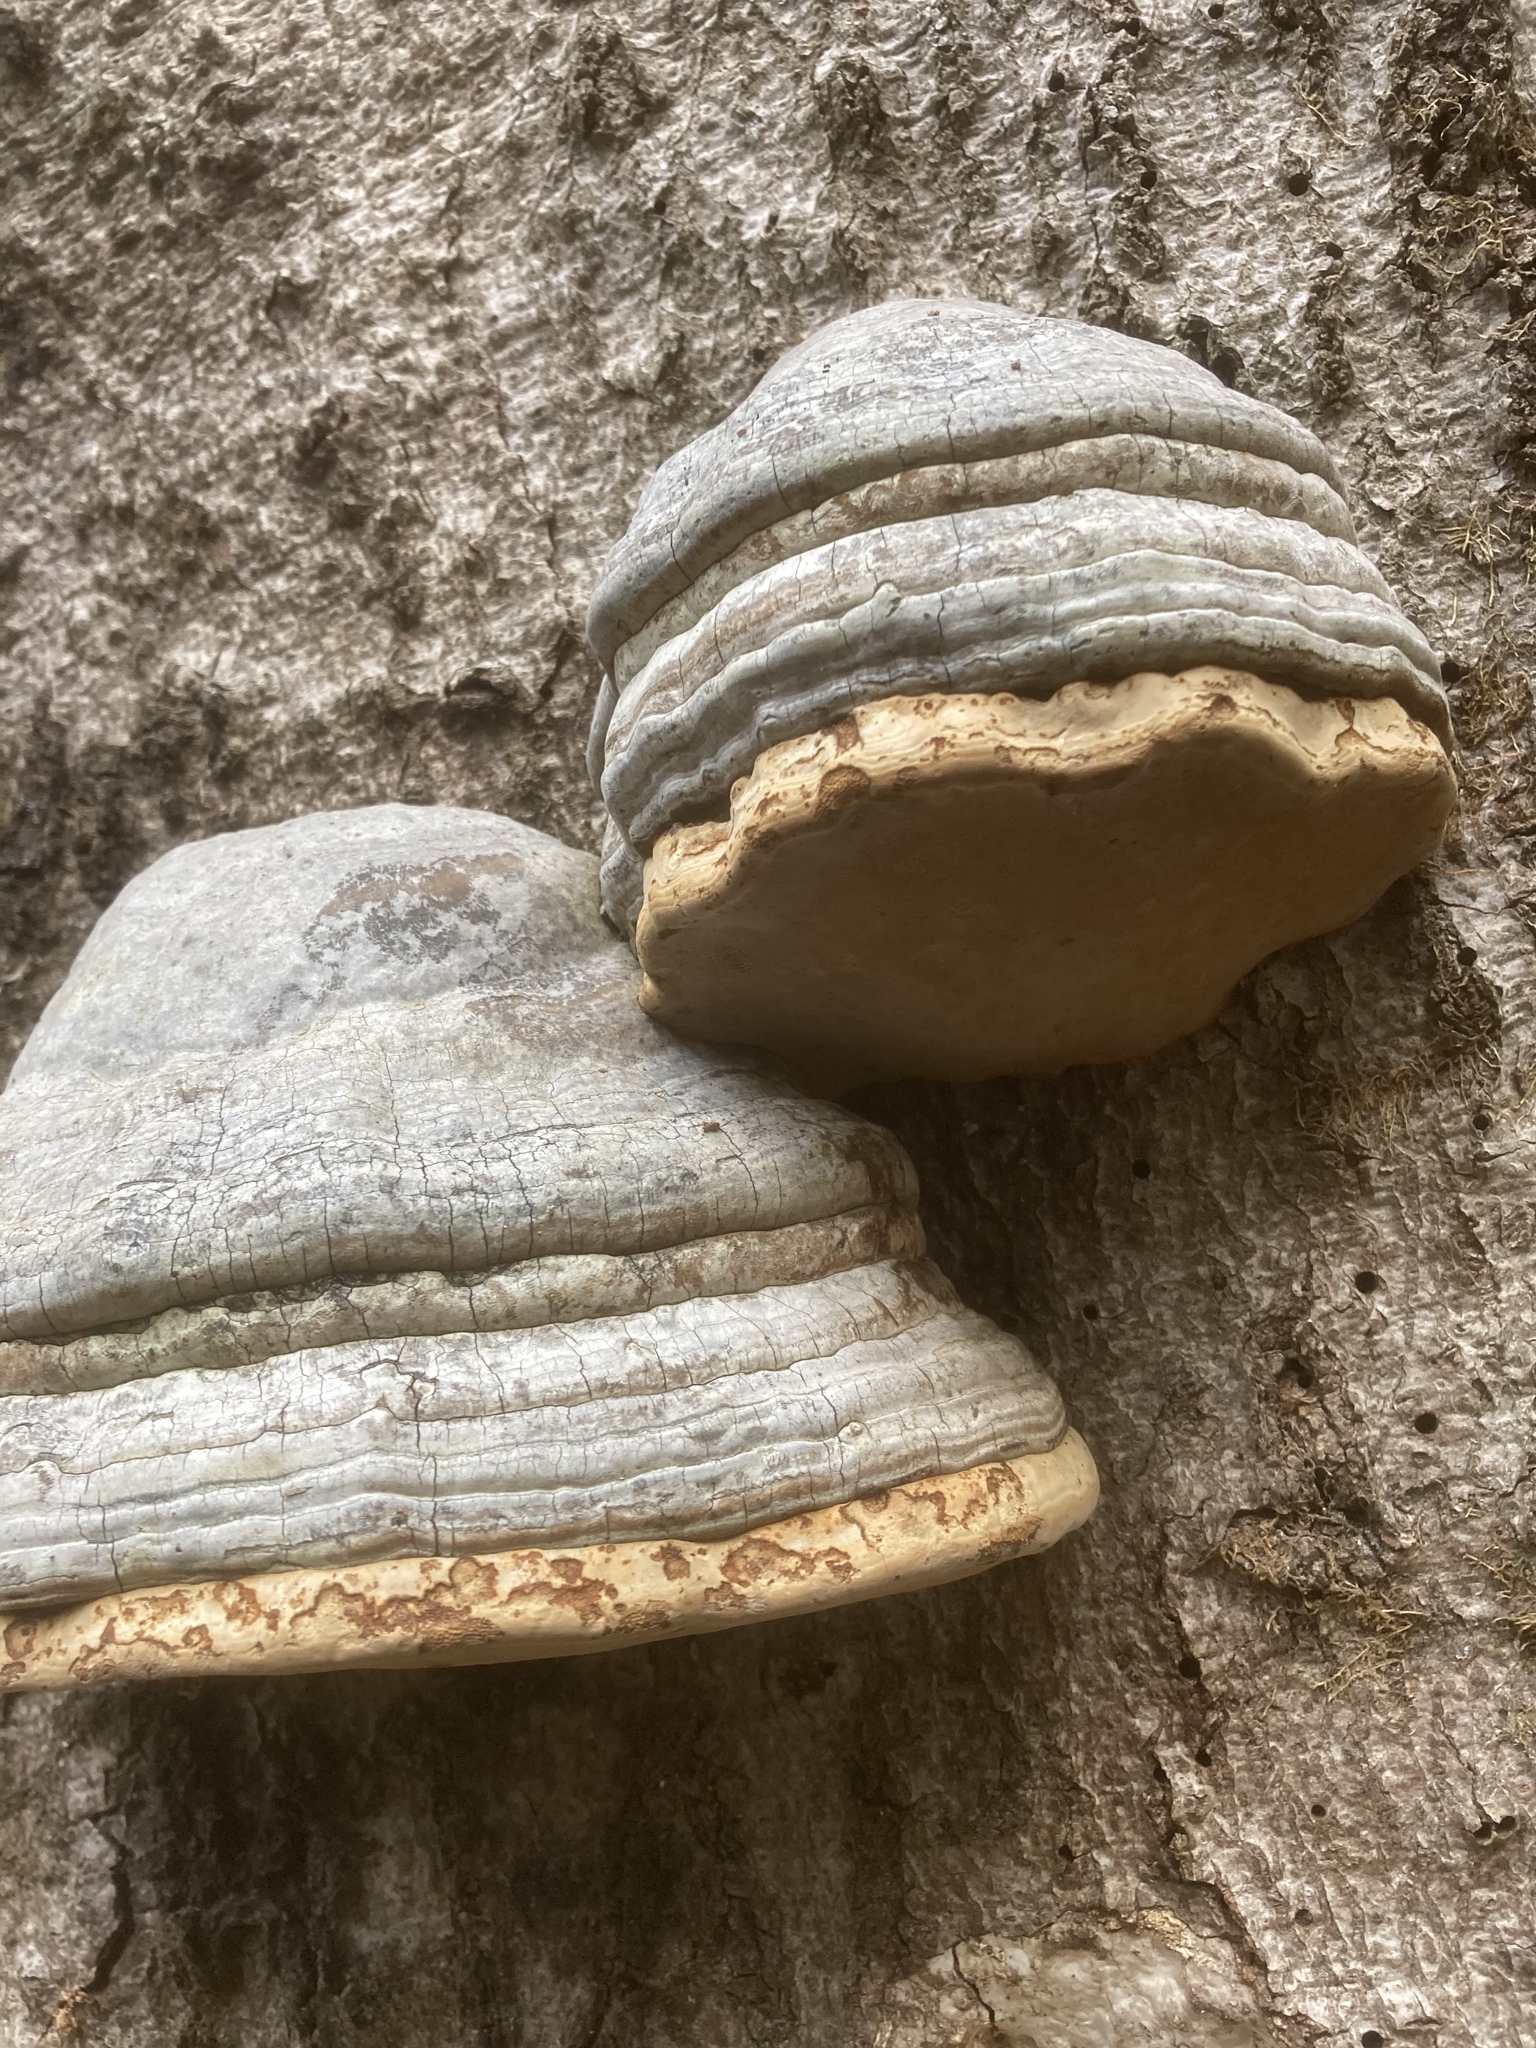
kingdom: Fungi
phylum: Basidiomycota
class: Agaricomycetes
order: Polyporales
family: Polyporaceae
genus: Fomes
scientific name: Fomes fomentarius
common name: Hoof fungus
